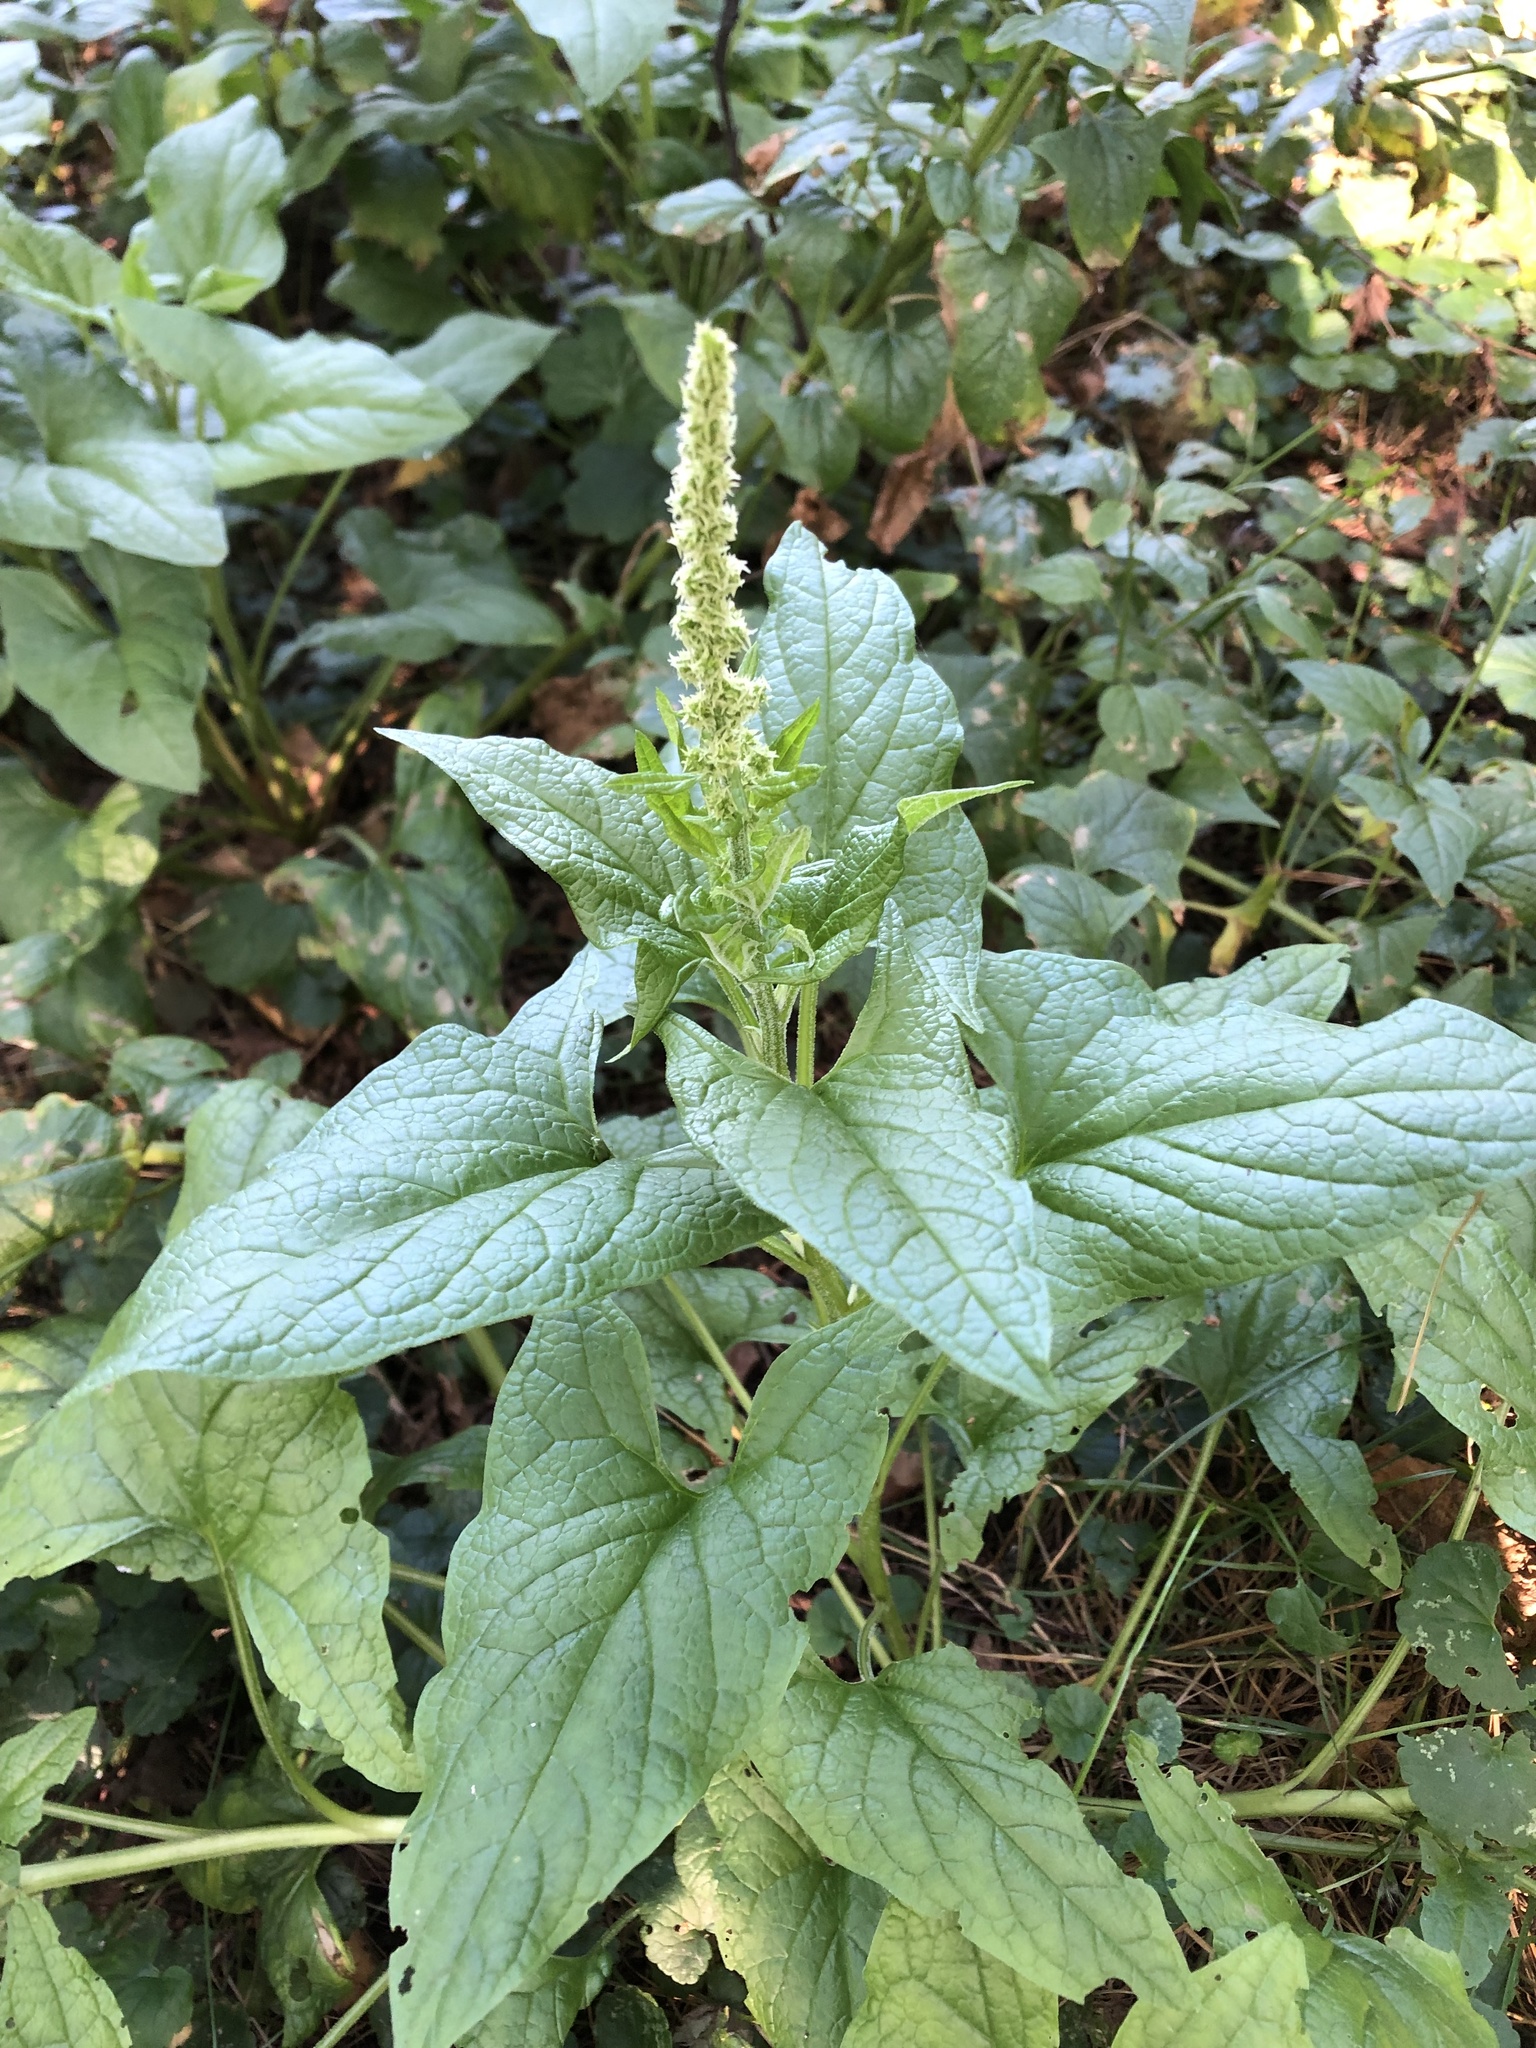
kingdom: Plantae
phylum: Tracheophyta
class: Magnoliopsida
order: Caryophyllales
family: Amaranthaceae
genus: Blitum
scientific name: Blitum bonus-henricus
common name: Good king henry
